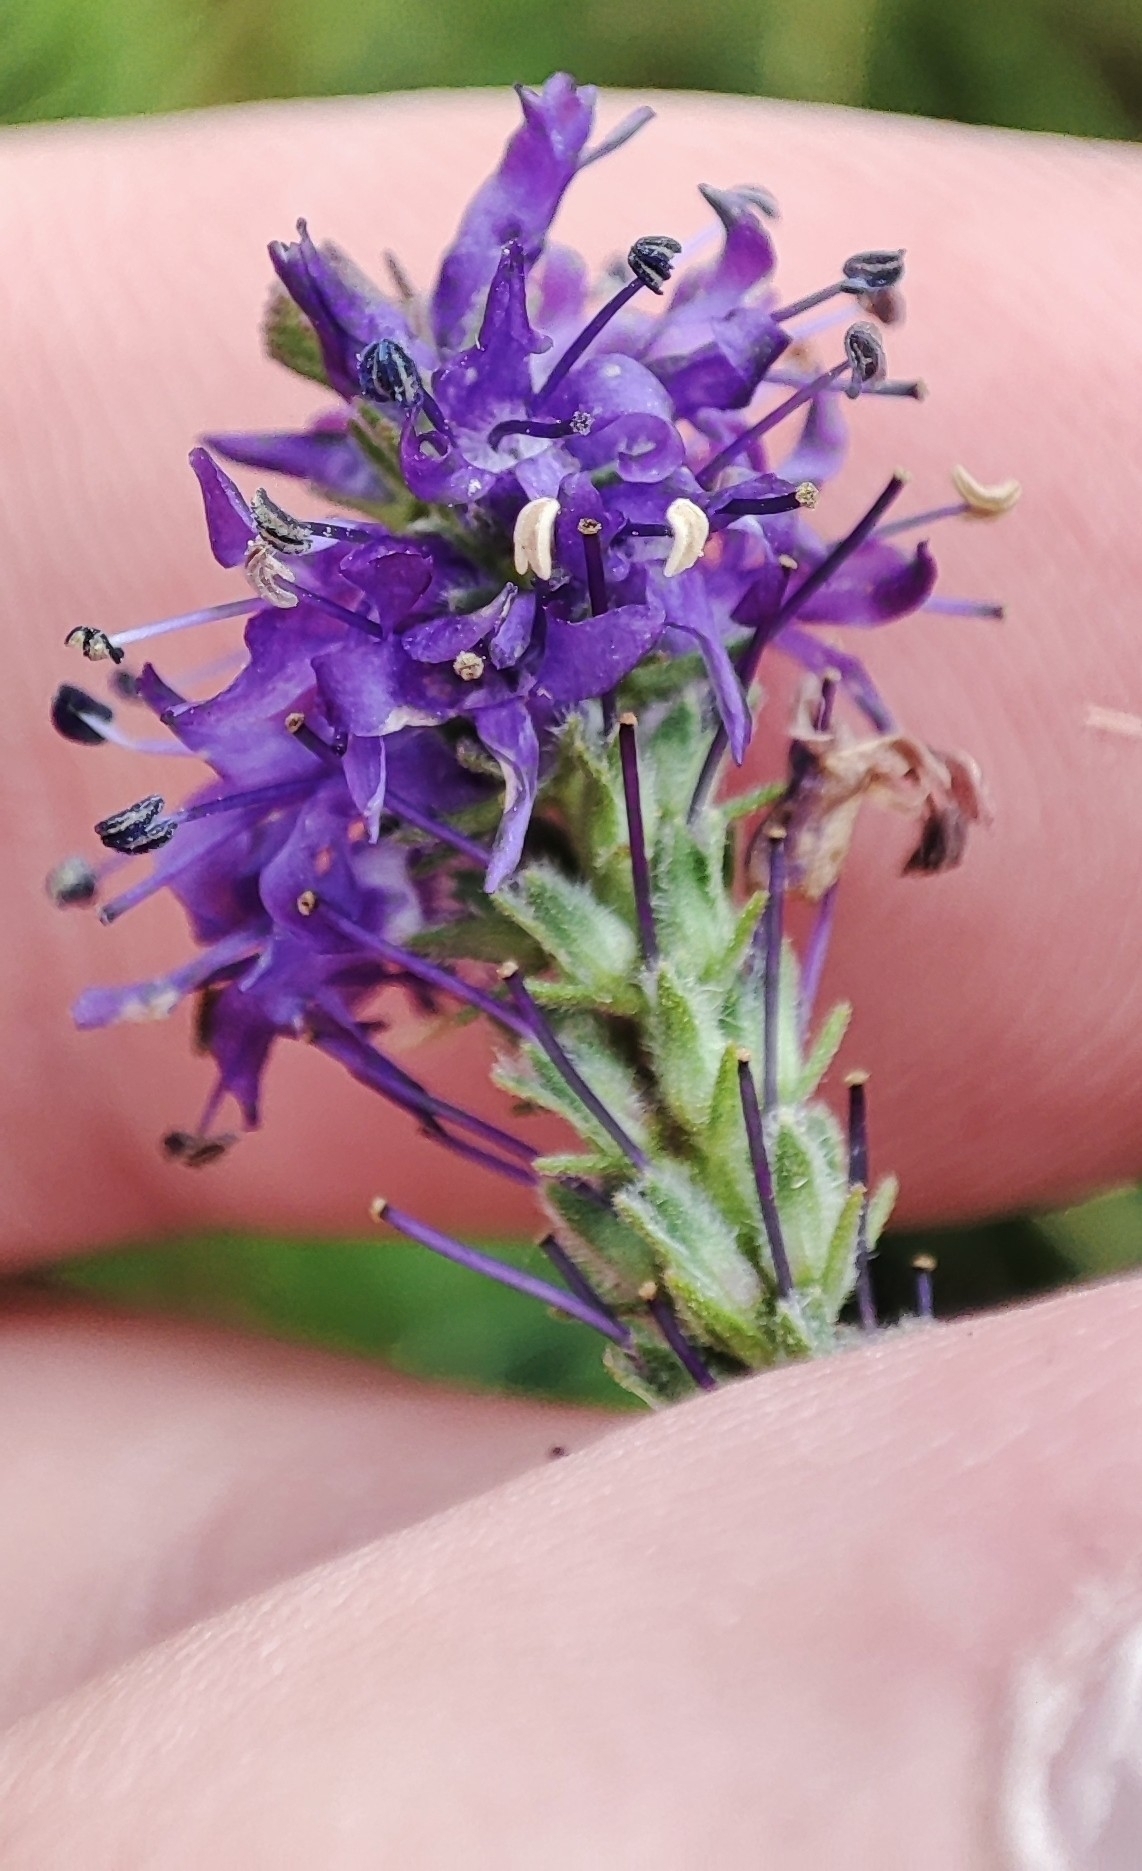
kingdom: Plantae
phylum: Tracheophyta
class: Magnoliopsida
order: Lamiales
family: Plantaginaceae
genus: Veronica
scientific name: Veronica spicata
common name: Spiked speedwell
